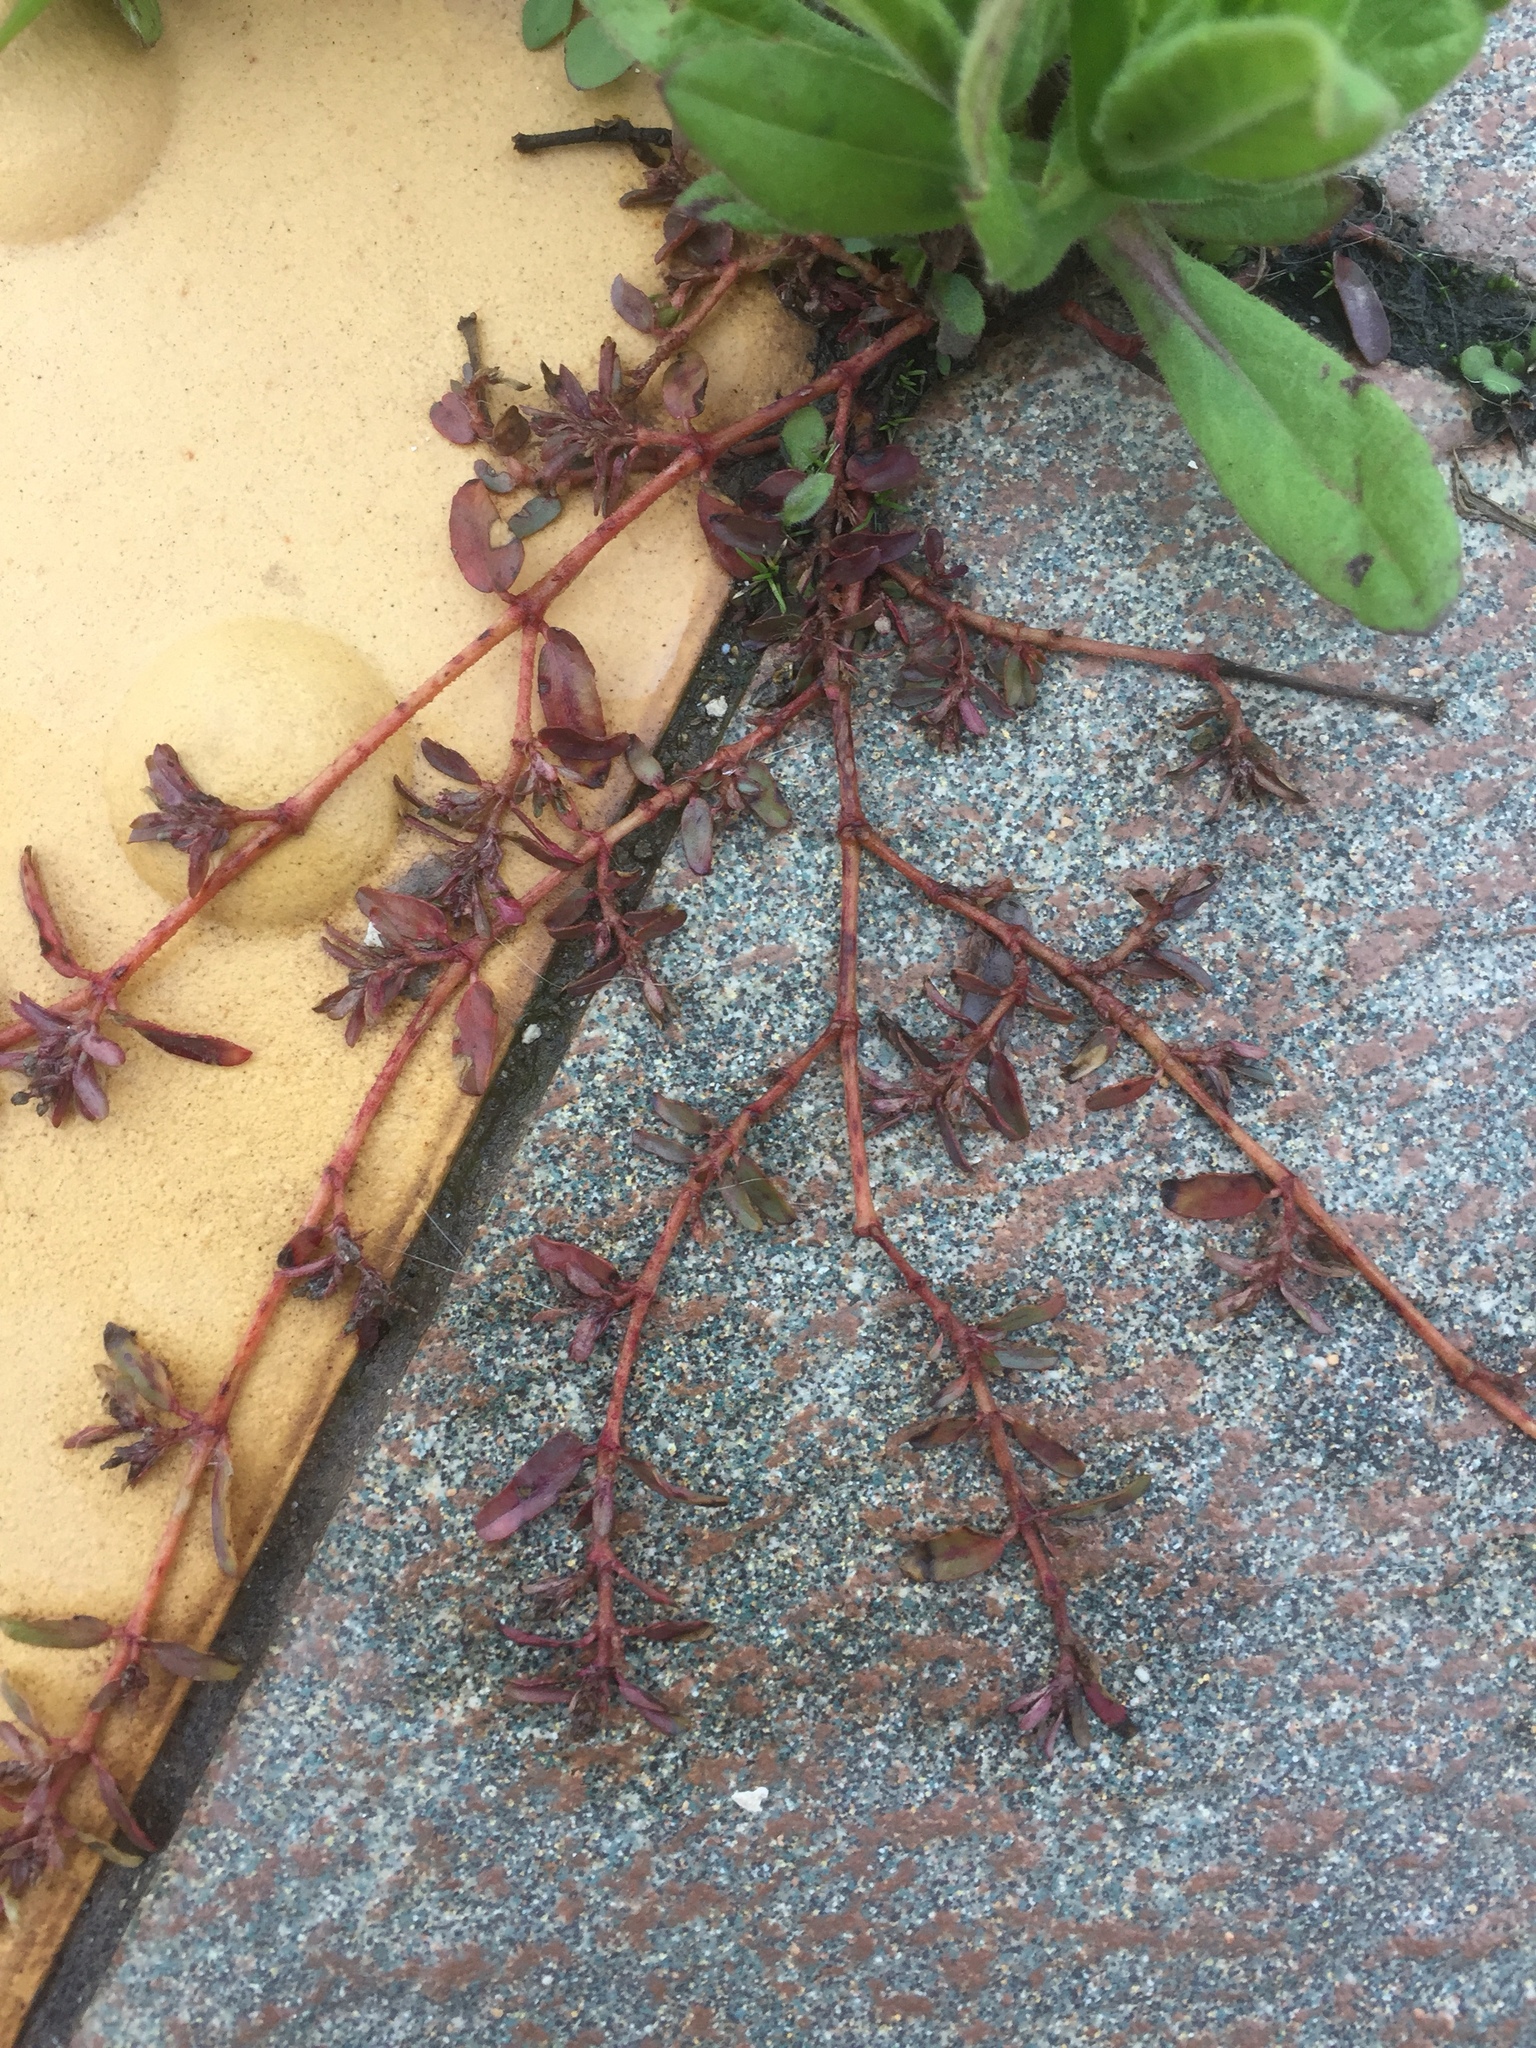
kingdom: Plantae
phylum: Tracheophyta
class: Magnoliopsida
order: Malpighiales
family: Euphorbiaceae
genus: Euphorbia
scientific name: Euphorbia maculata
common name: Spotted spurge
